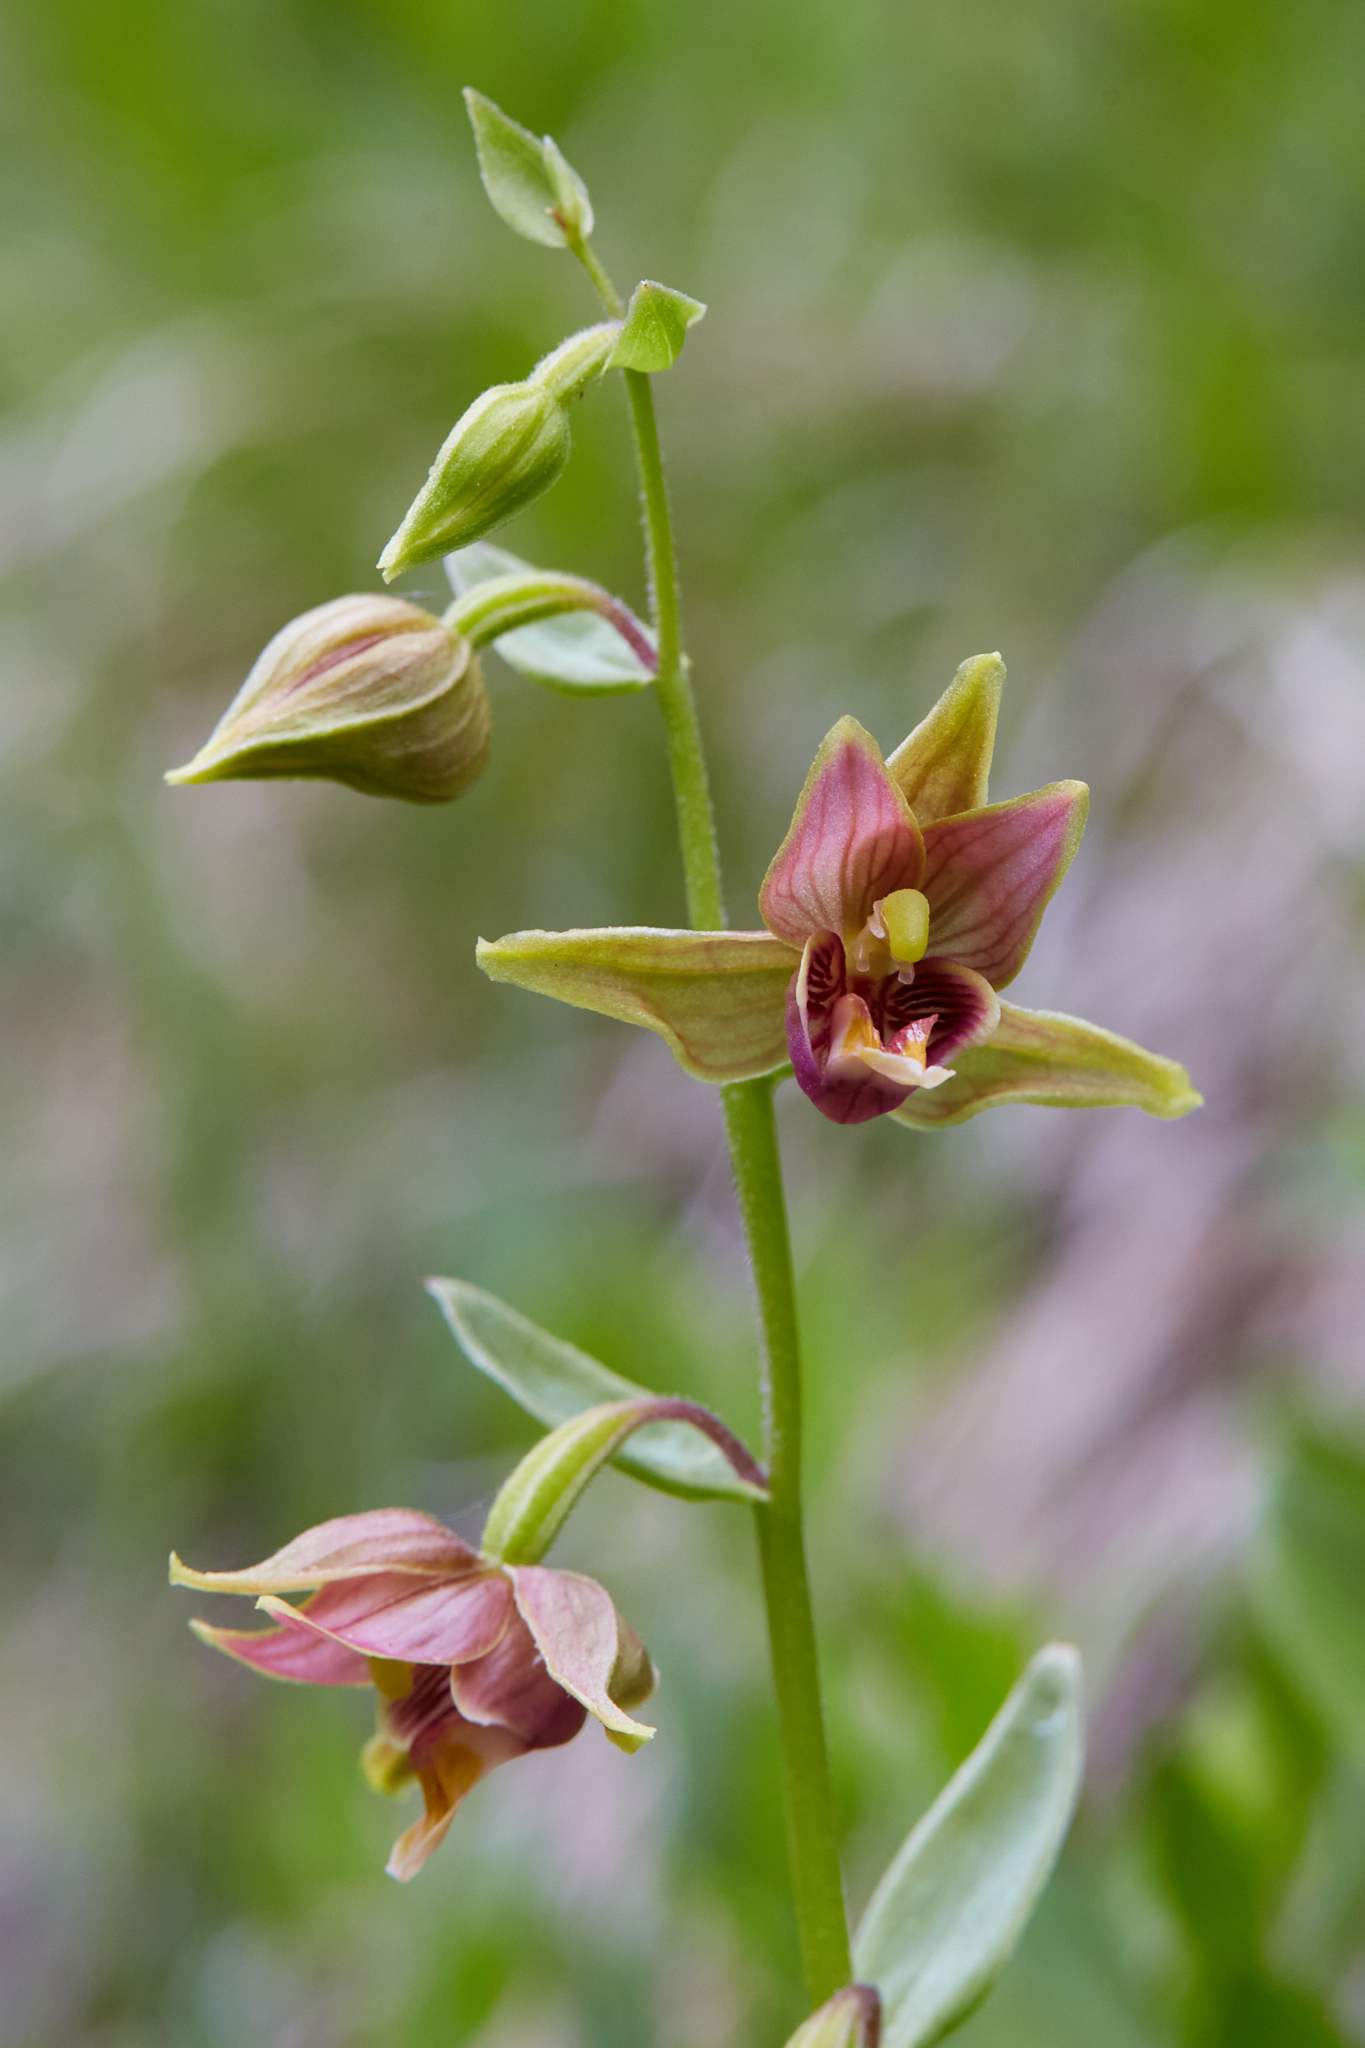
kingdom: Plantae
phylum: Tracheophyta
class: Liliopsida
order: Asparagales
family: Orchidaceae
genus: Epipactis
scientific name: Epipactis gigantea
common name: Chatterbox
